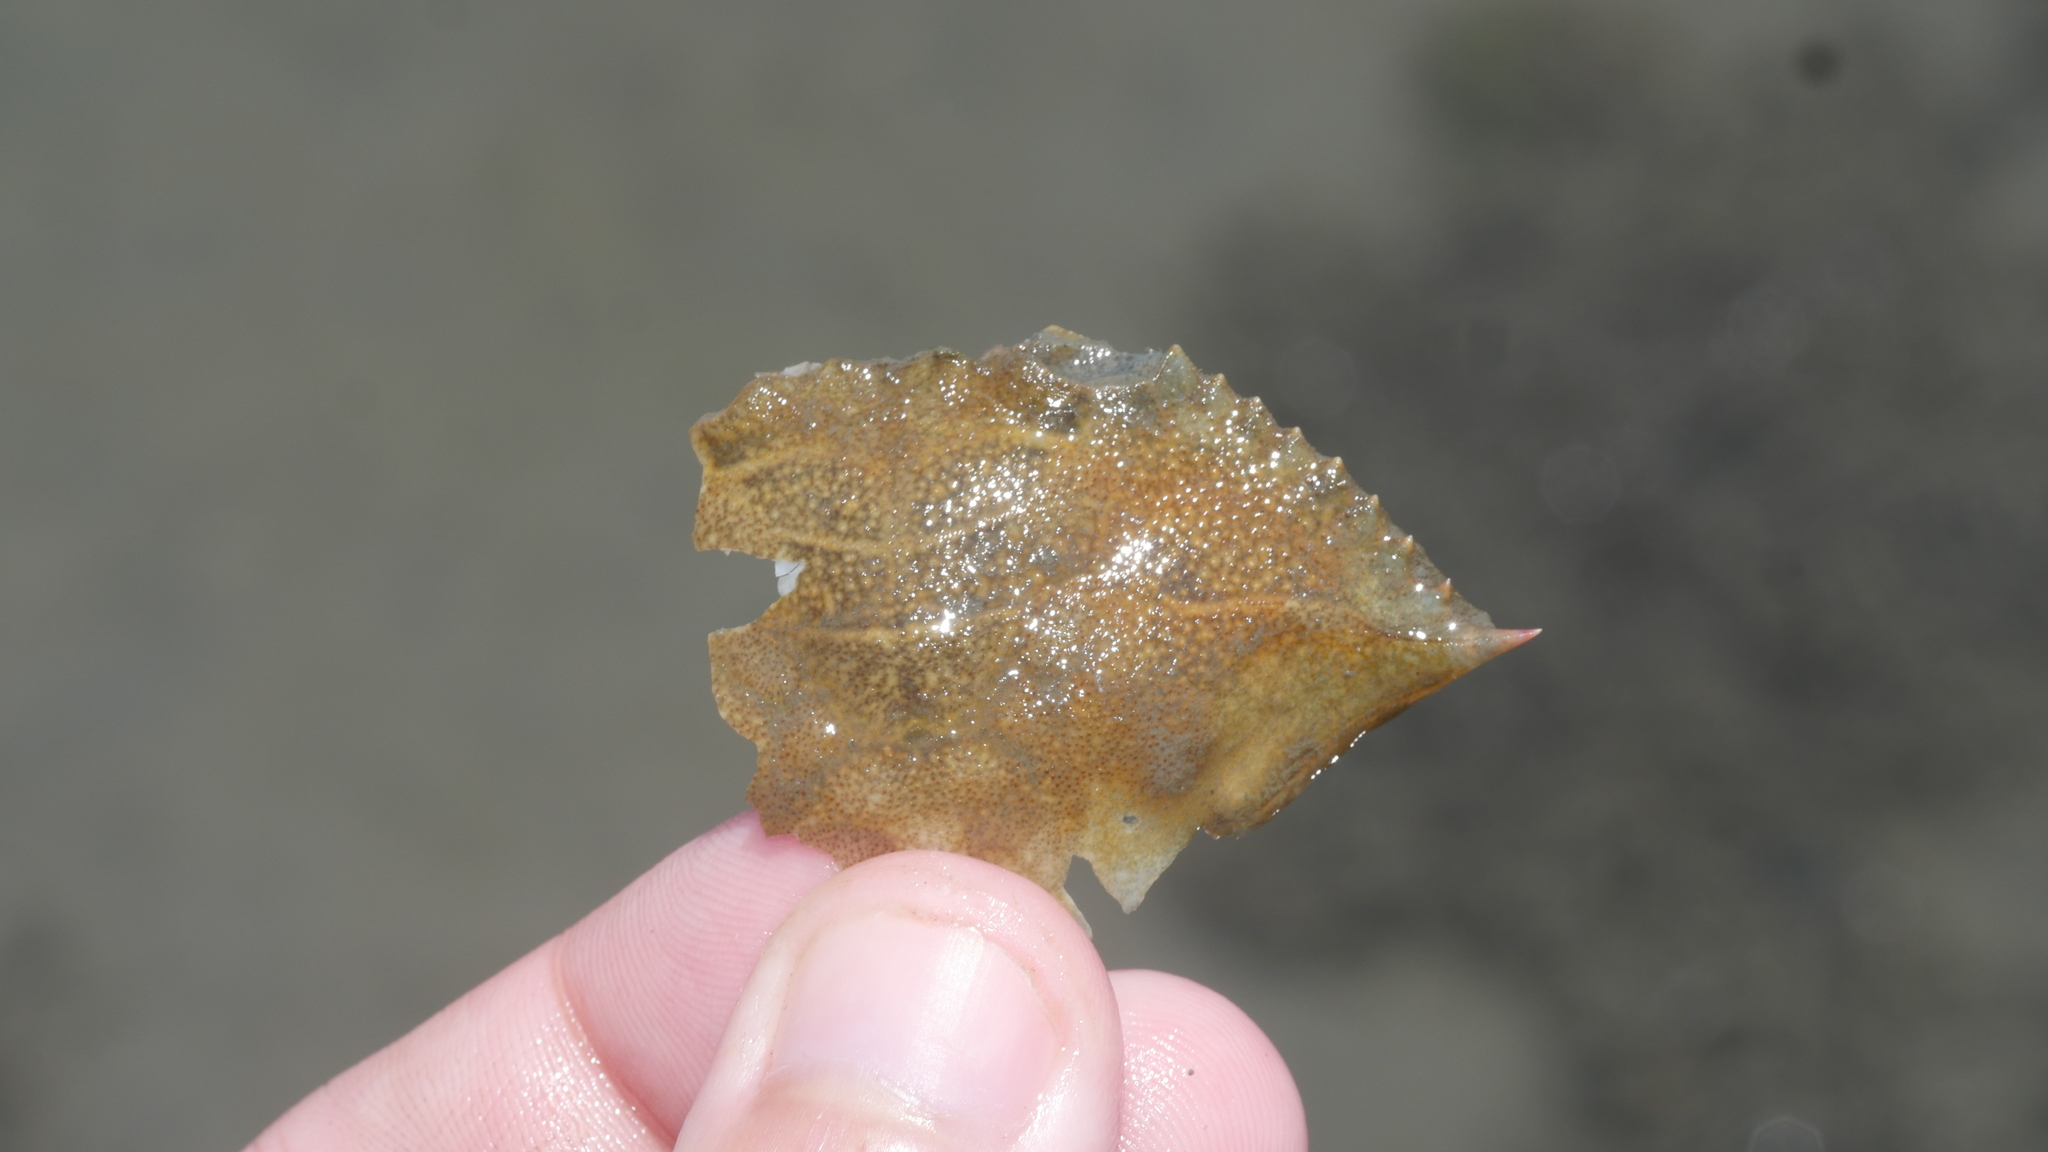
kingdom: Animalia
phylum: Arthropoda
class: Malacostraca
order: Decapoda
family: Portunidae
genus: Callinectes
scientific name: Callinectes sapidus
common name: Blue crab
